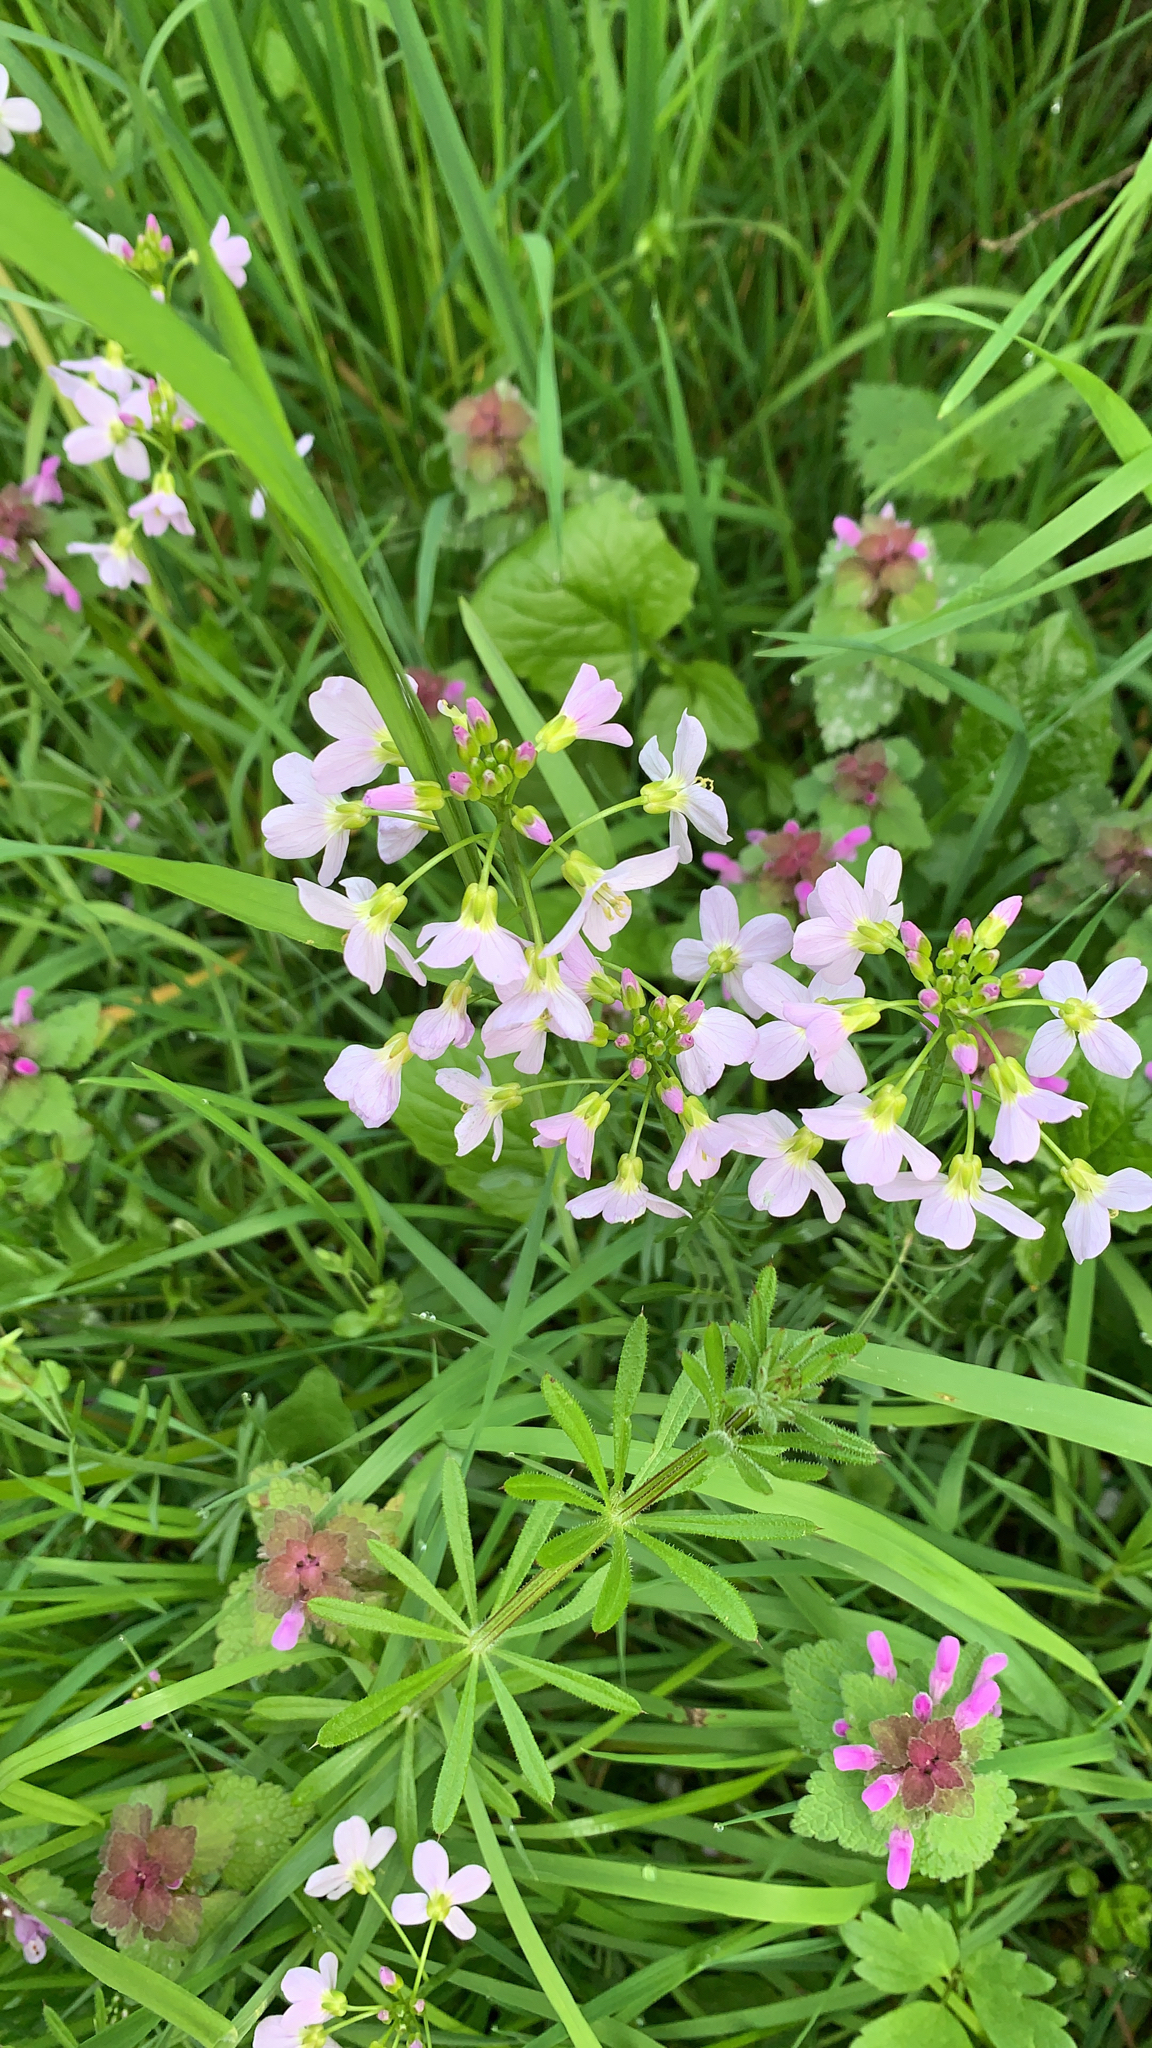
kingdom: Plantae
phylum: Tracheophyta
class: Magnoliopsida
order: Brassicales
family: Brassicaceae
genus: Cardamine
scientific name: Cardamine pratensis
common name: Cuckoo flower
